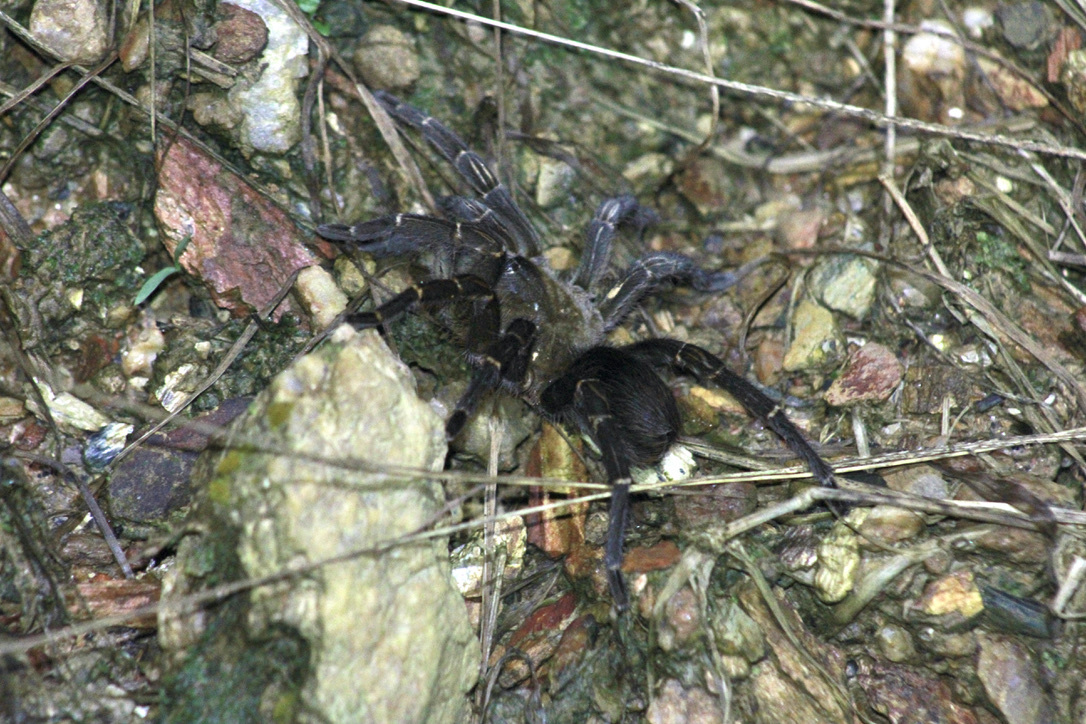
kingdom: Animalia
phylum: Arthropoda
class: Arachnida
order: Araneae
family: Theraphosidae
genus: Spinosatibiapalpus
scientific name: Spinosatibiapalpus trinitatis
